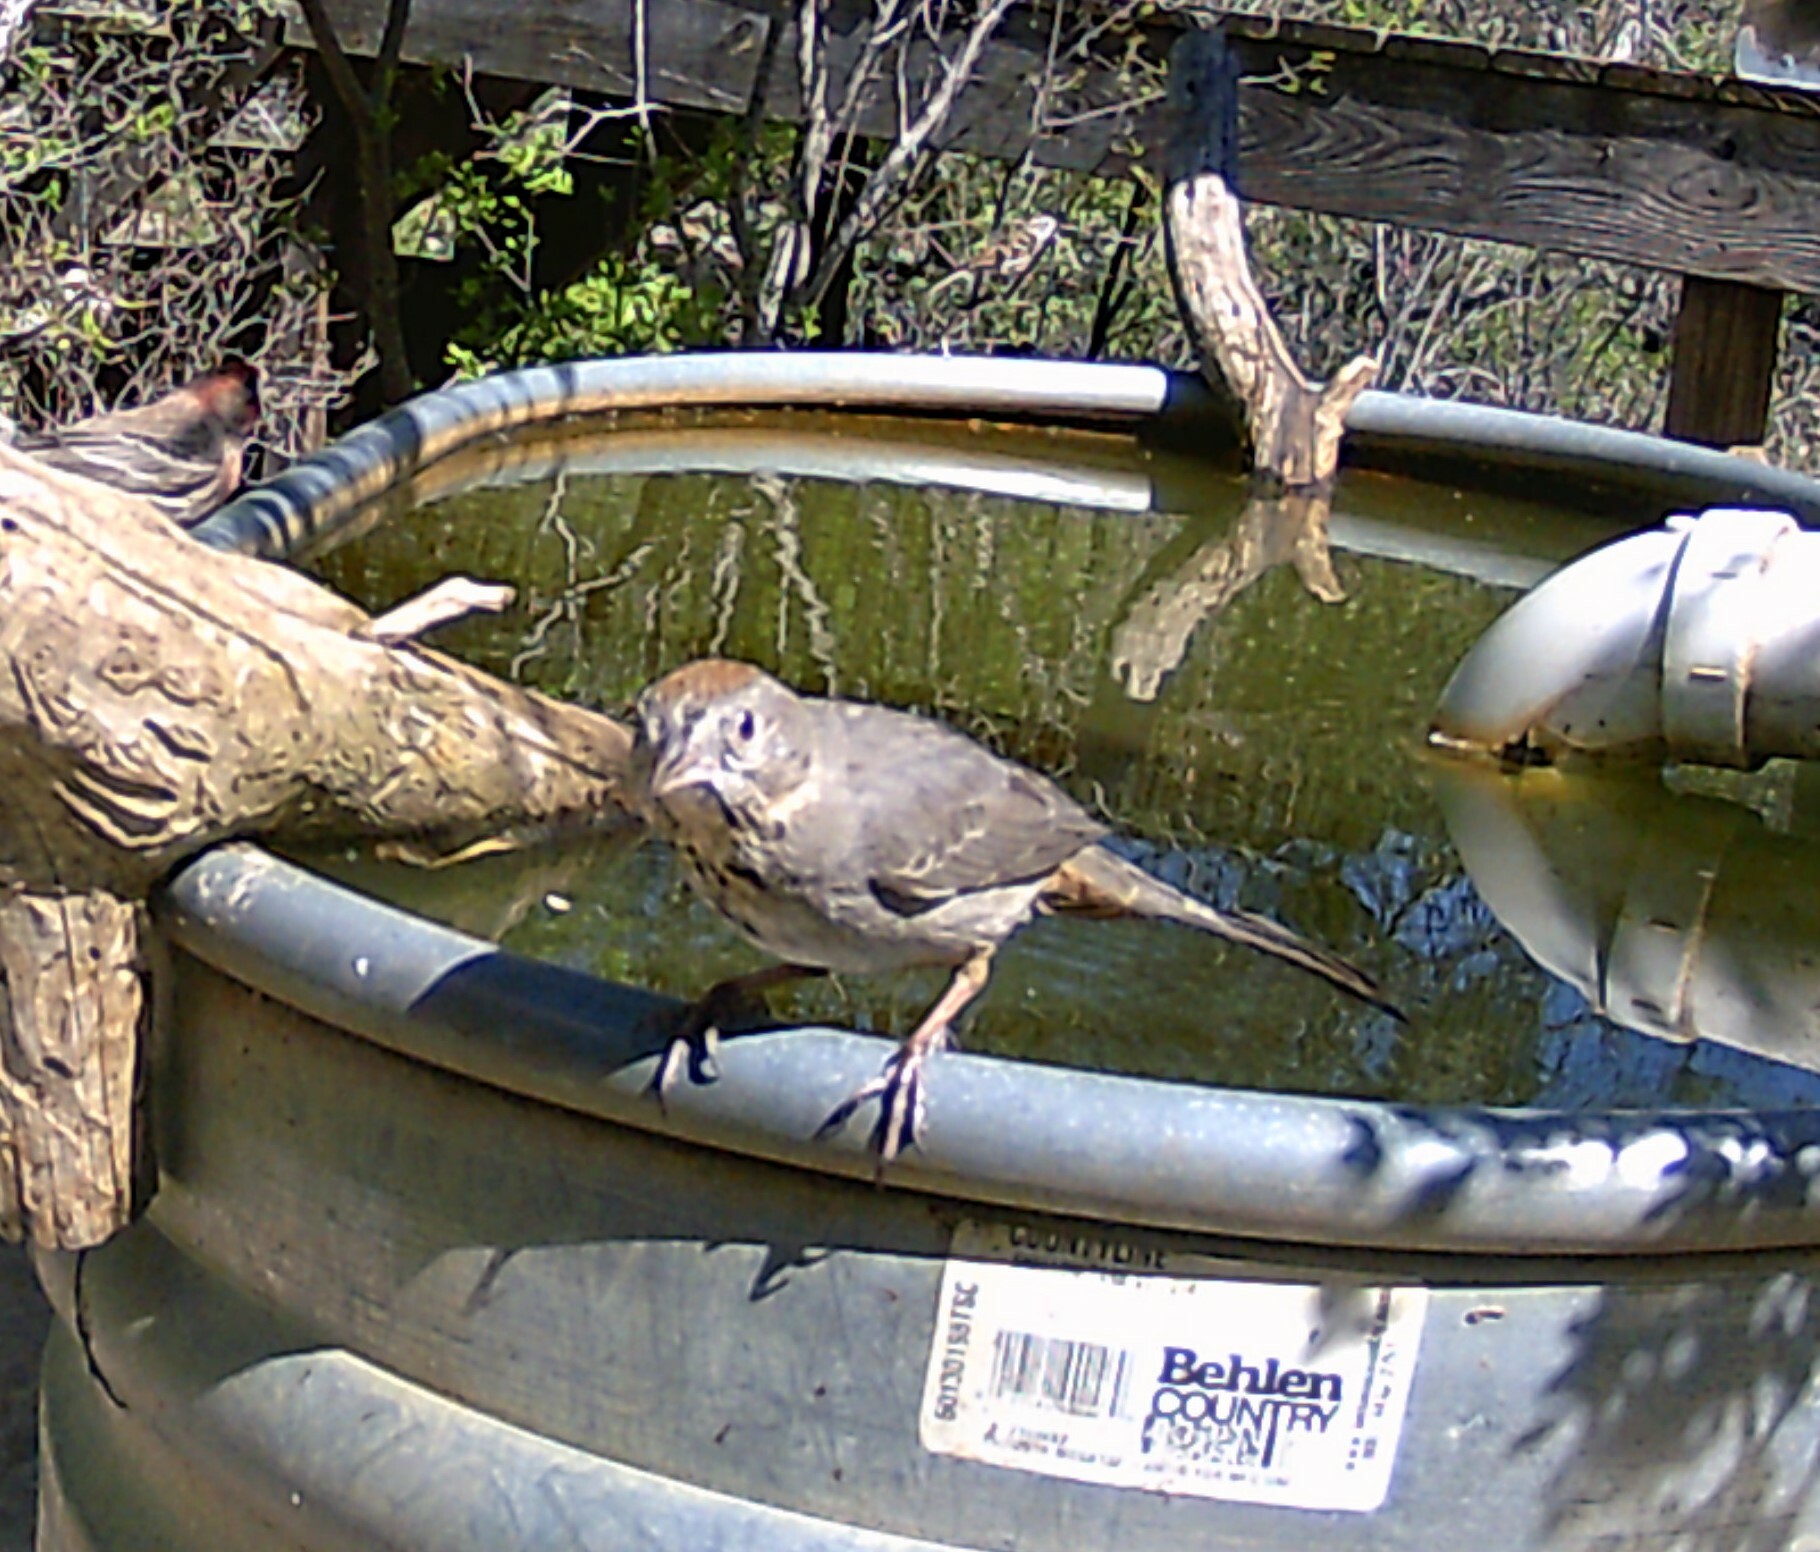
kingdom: Animalia
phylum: Chordata
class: Aves
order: Passeriformes
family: Passerellidae
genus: Melozone
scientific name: Melozone fusca
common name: Canyon towhee
